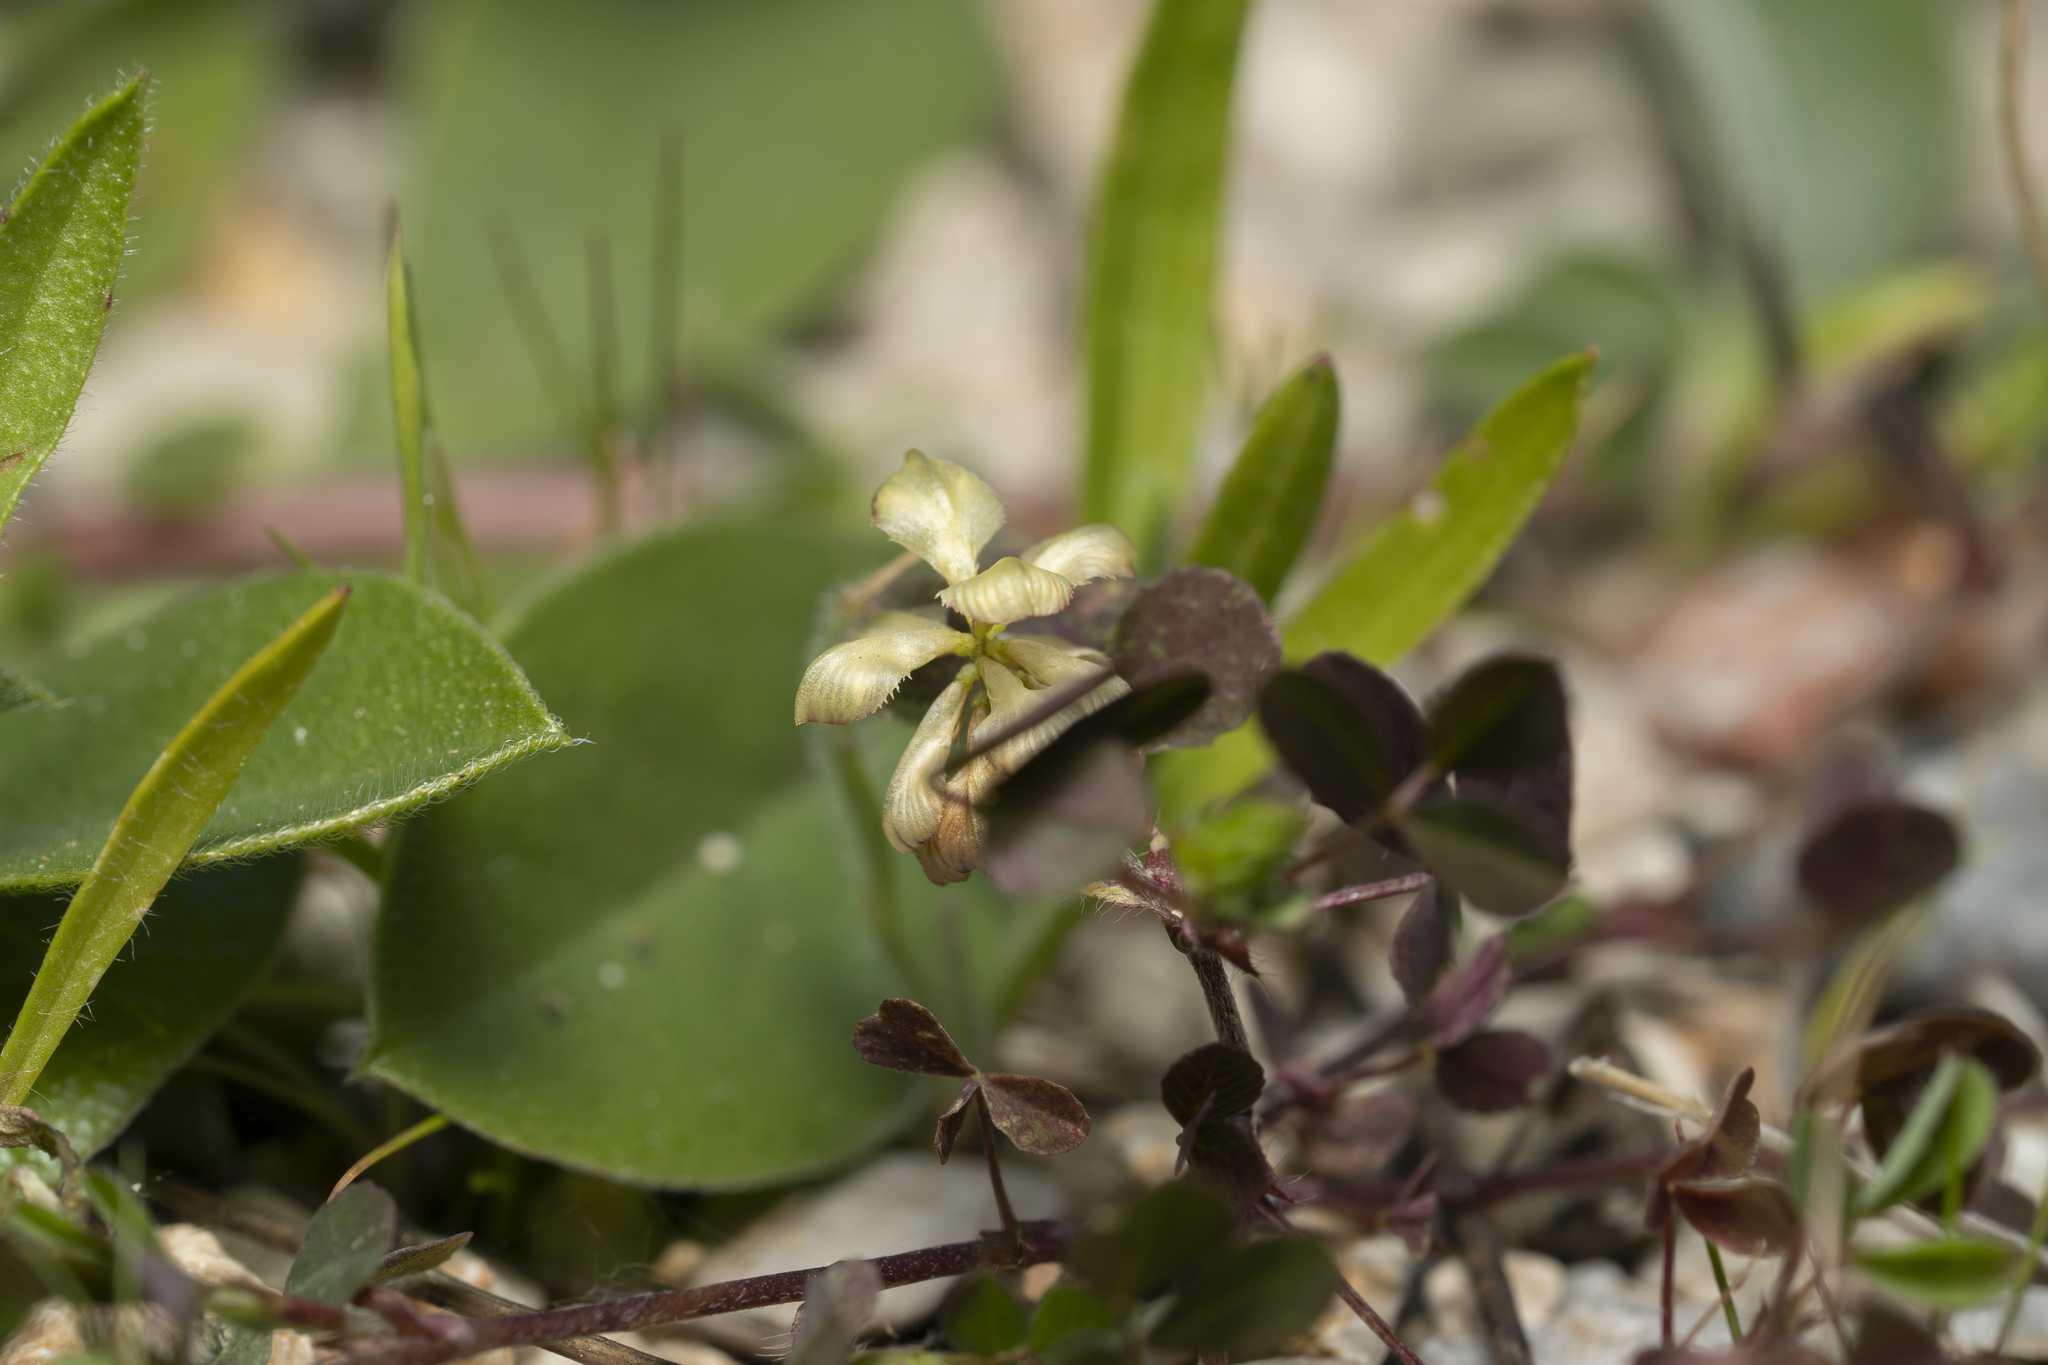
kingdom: Plantae
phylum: Tracheophyta
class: Magnoliopsida
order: Fabales
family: Fabaceae
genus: Trifolium
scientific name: Trifolium campestre
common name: Field clover
